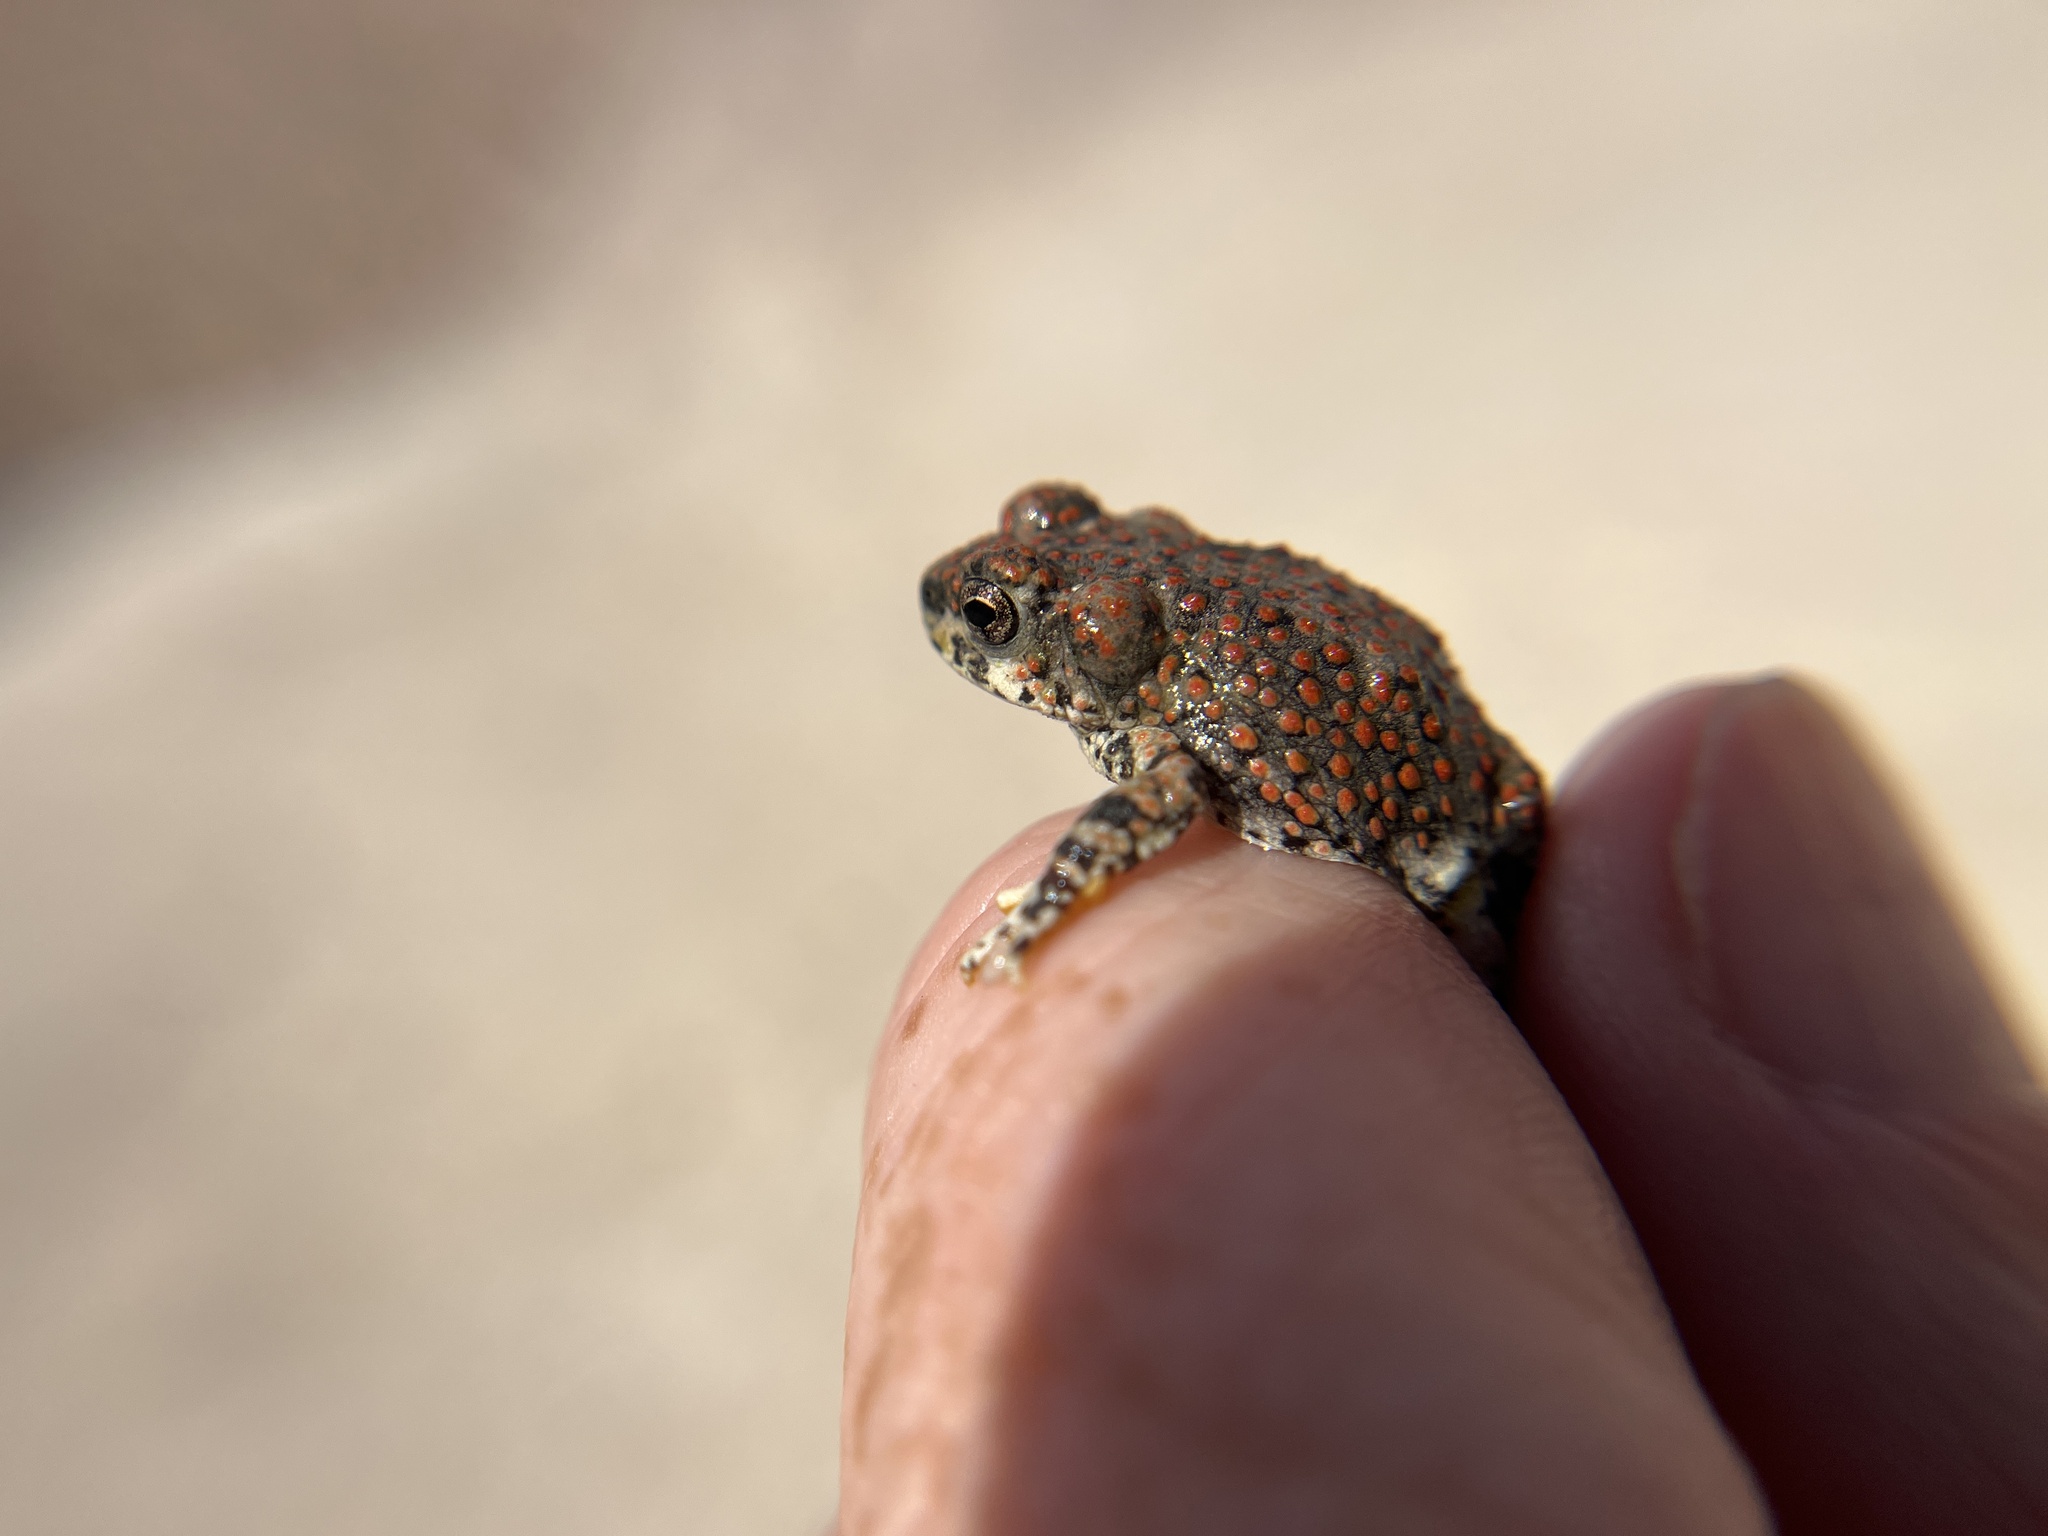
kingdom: Animalia
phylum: Chordata
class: Amphibia
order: Anura
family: Bufonidae
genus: Anaxyrus
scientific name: Anaxyrus punctatus
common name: Red-spotted toad
